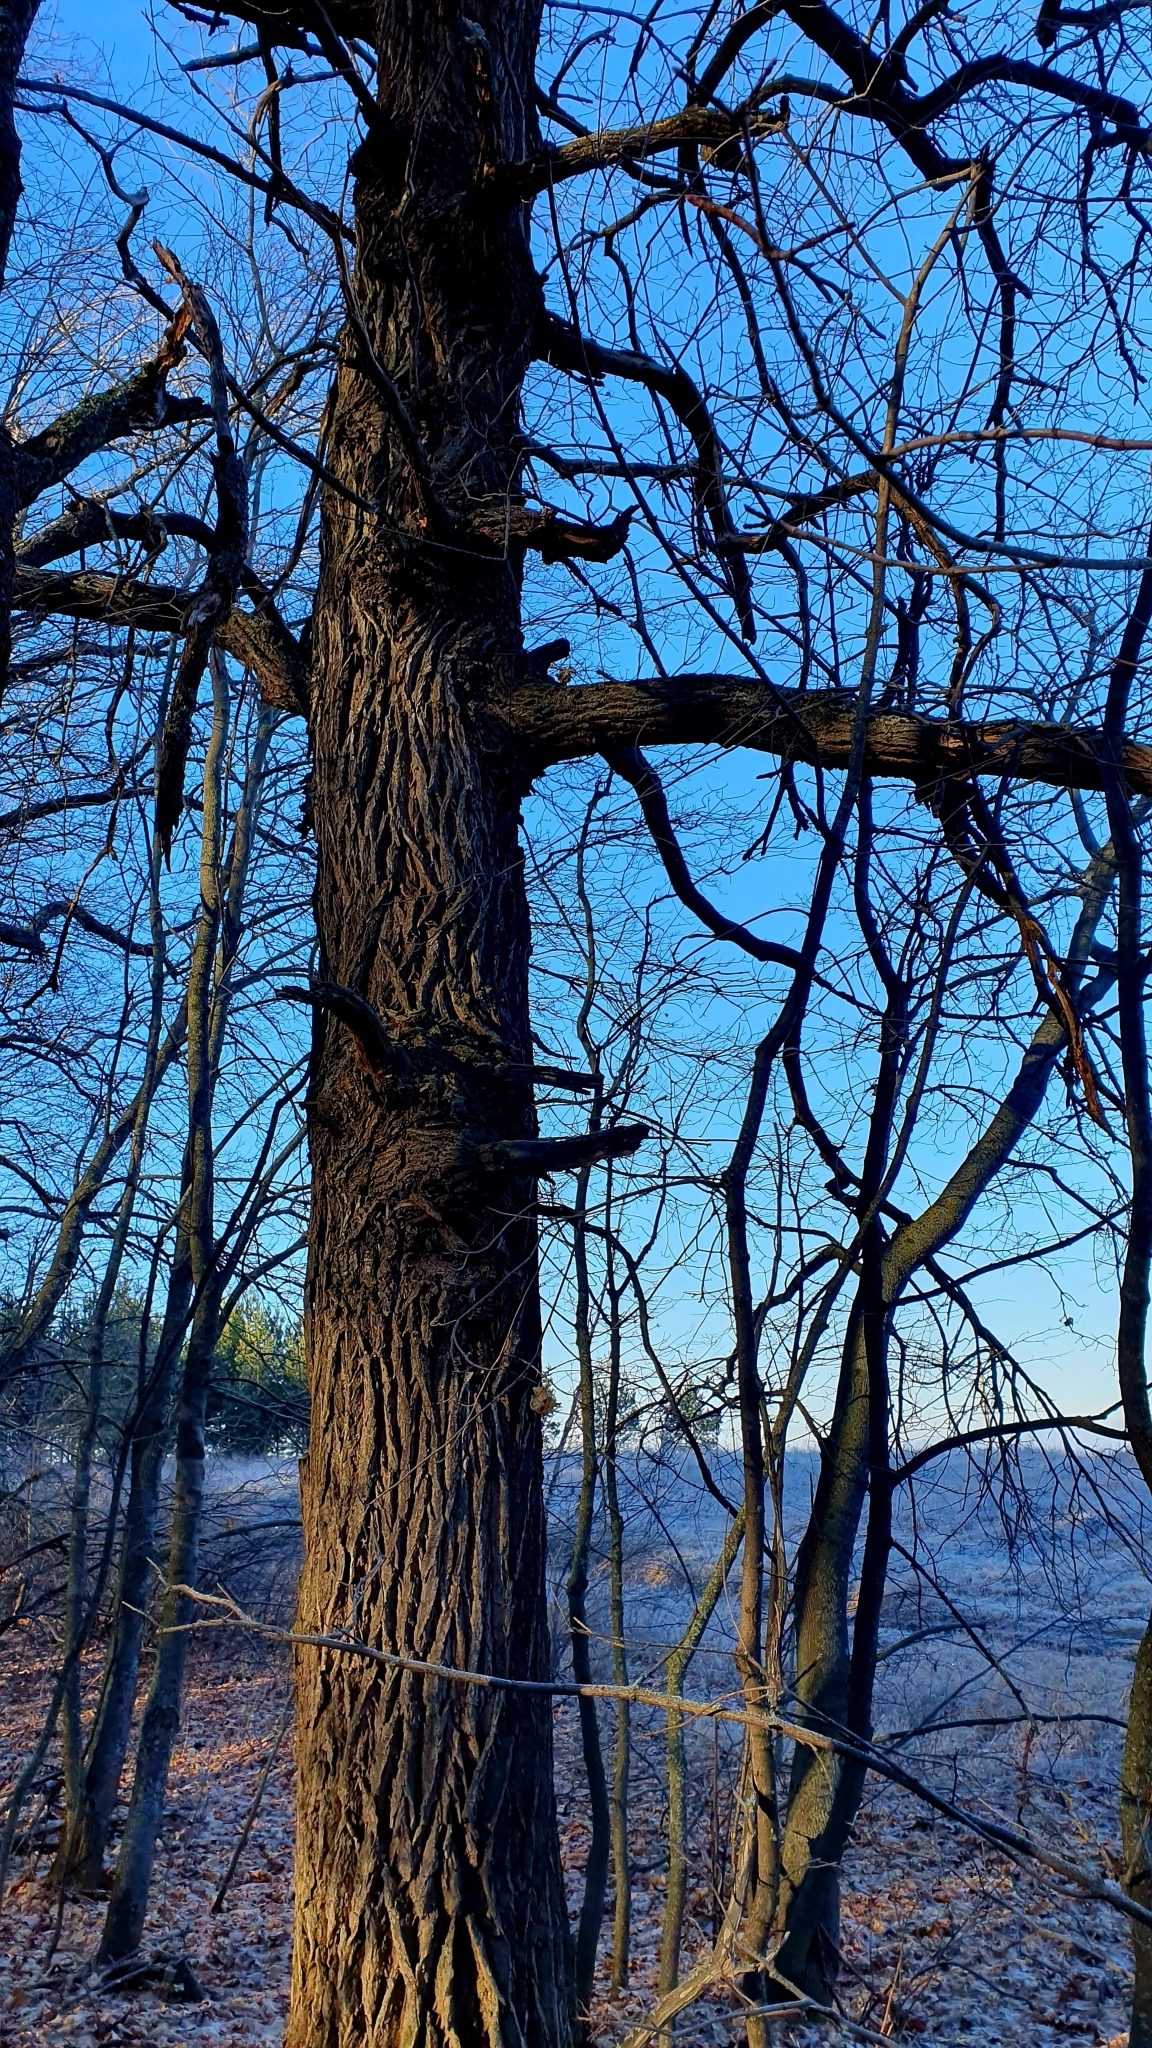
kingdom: Plantae
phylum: Tracheophyta
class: Magnoliopsida
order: Fagales
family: Fagaceae
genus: Quercus
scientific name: Quercus robur
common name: Pedunculate oak
